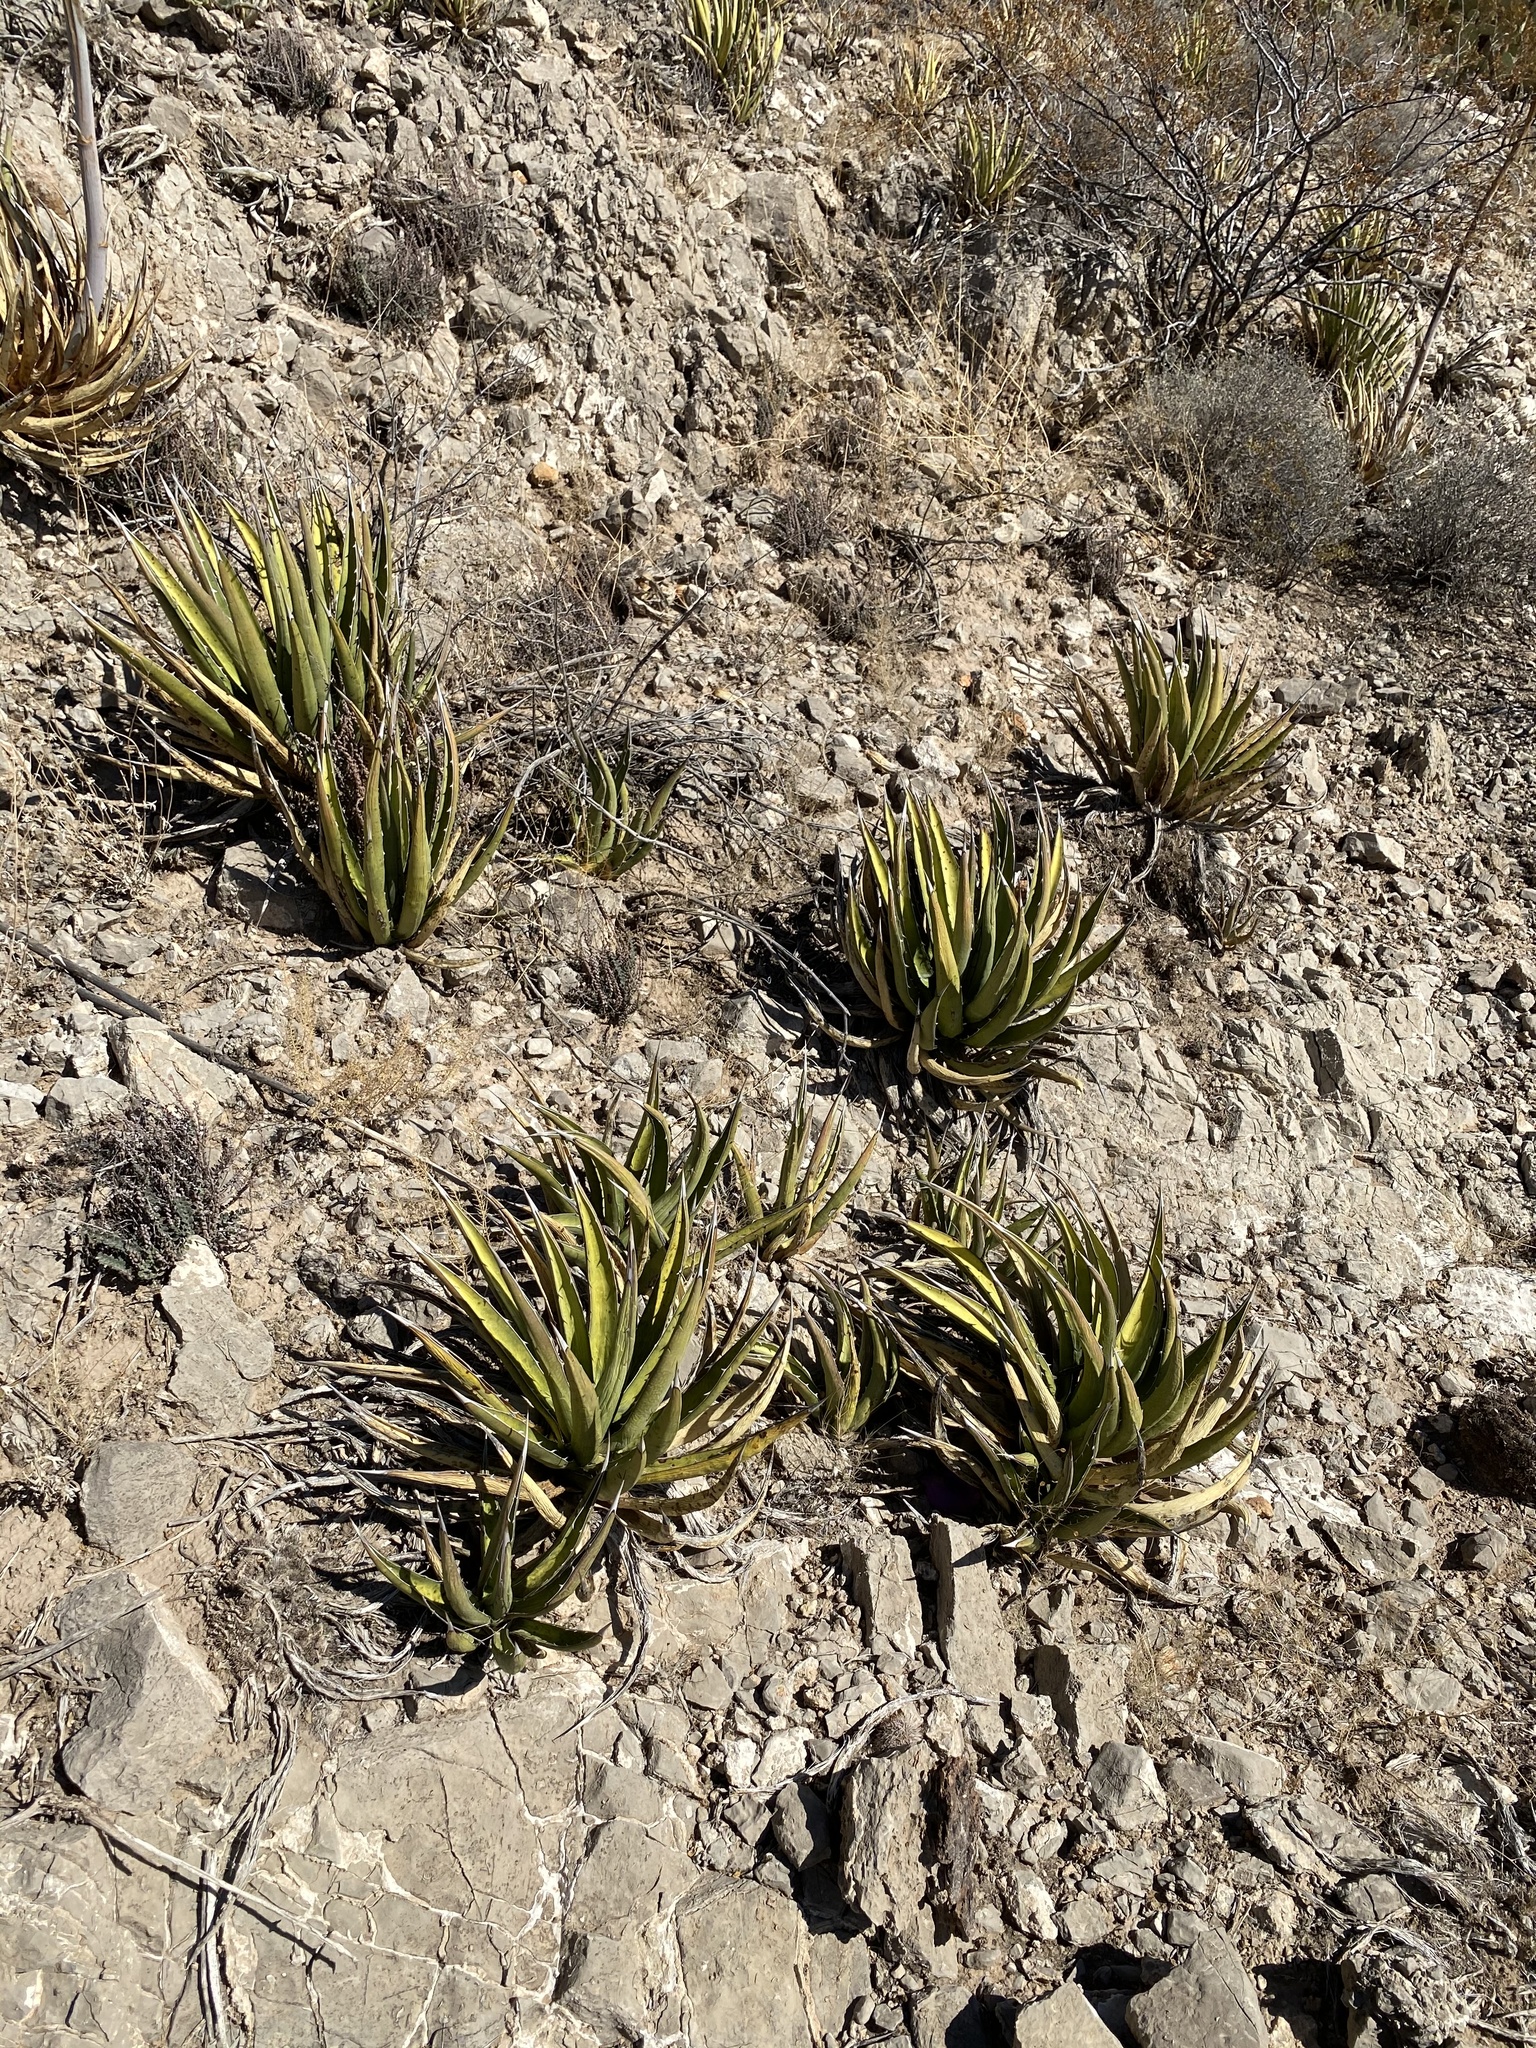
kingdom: Plantae
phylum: Tracheophyta
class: Liliopsida
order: Asparagales
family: Asparagaceae
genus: Agave
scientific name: Agave lechuguilla
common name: Lecheguilla agave
